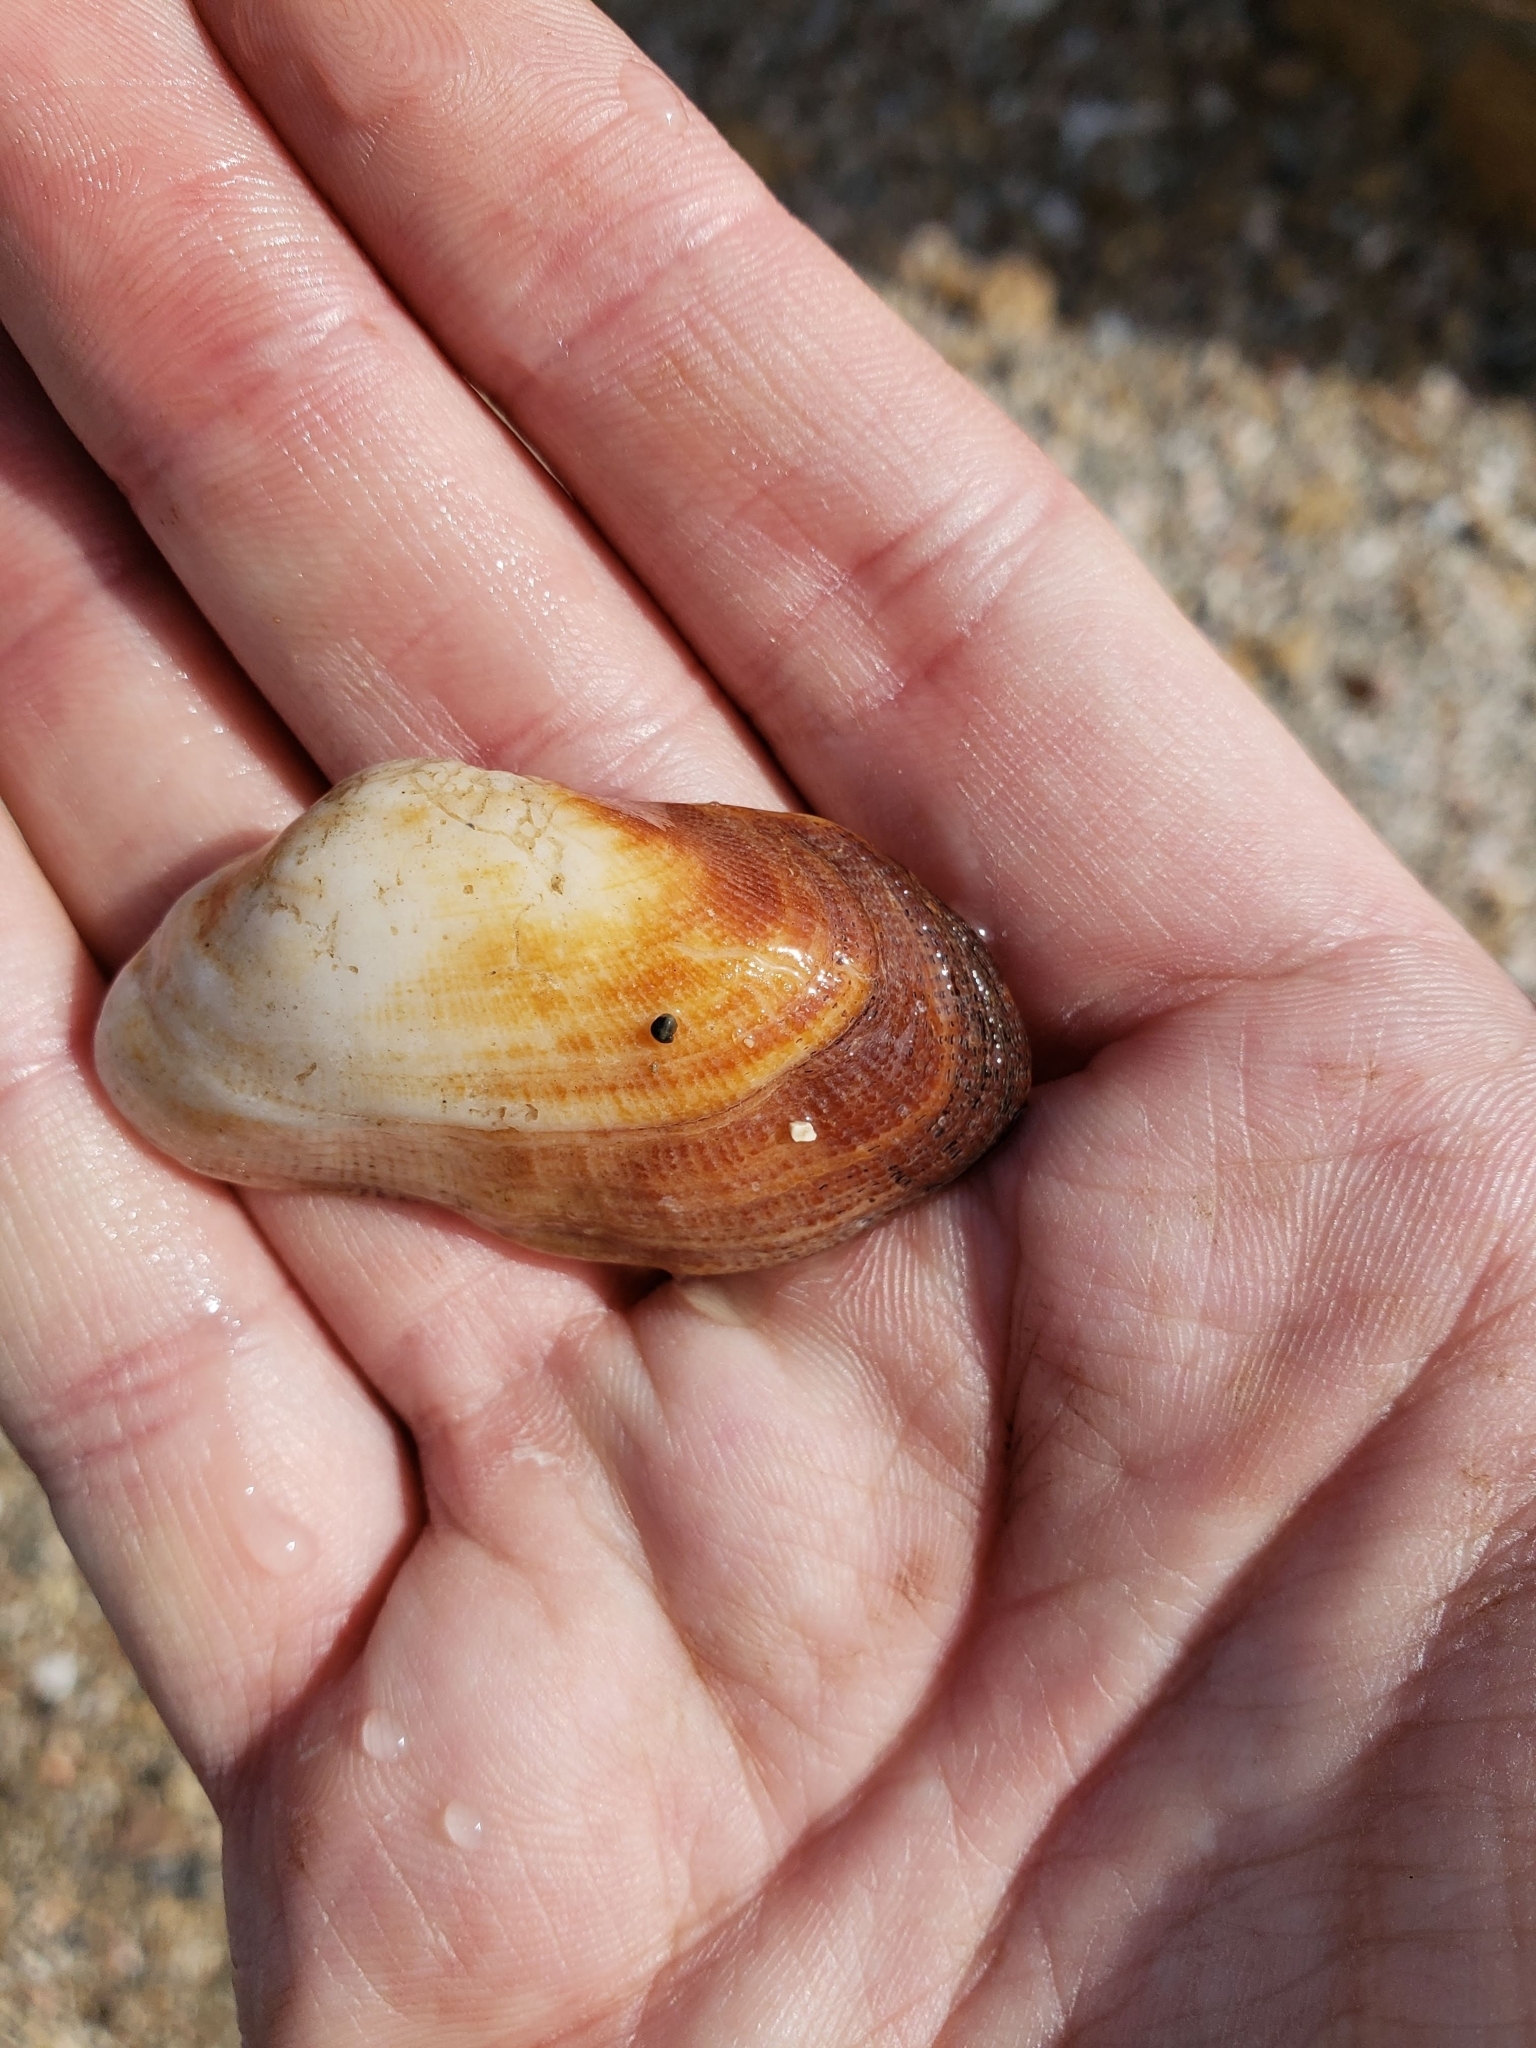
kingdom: Animalia
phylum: Mollusca
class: Bivalvia
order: Arcida
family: Arcidae
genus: Barbatia
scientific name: Barbatia barbata
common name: Bearded ark
